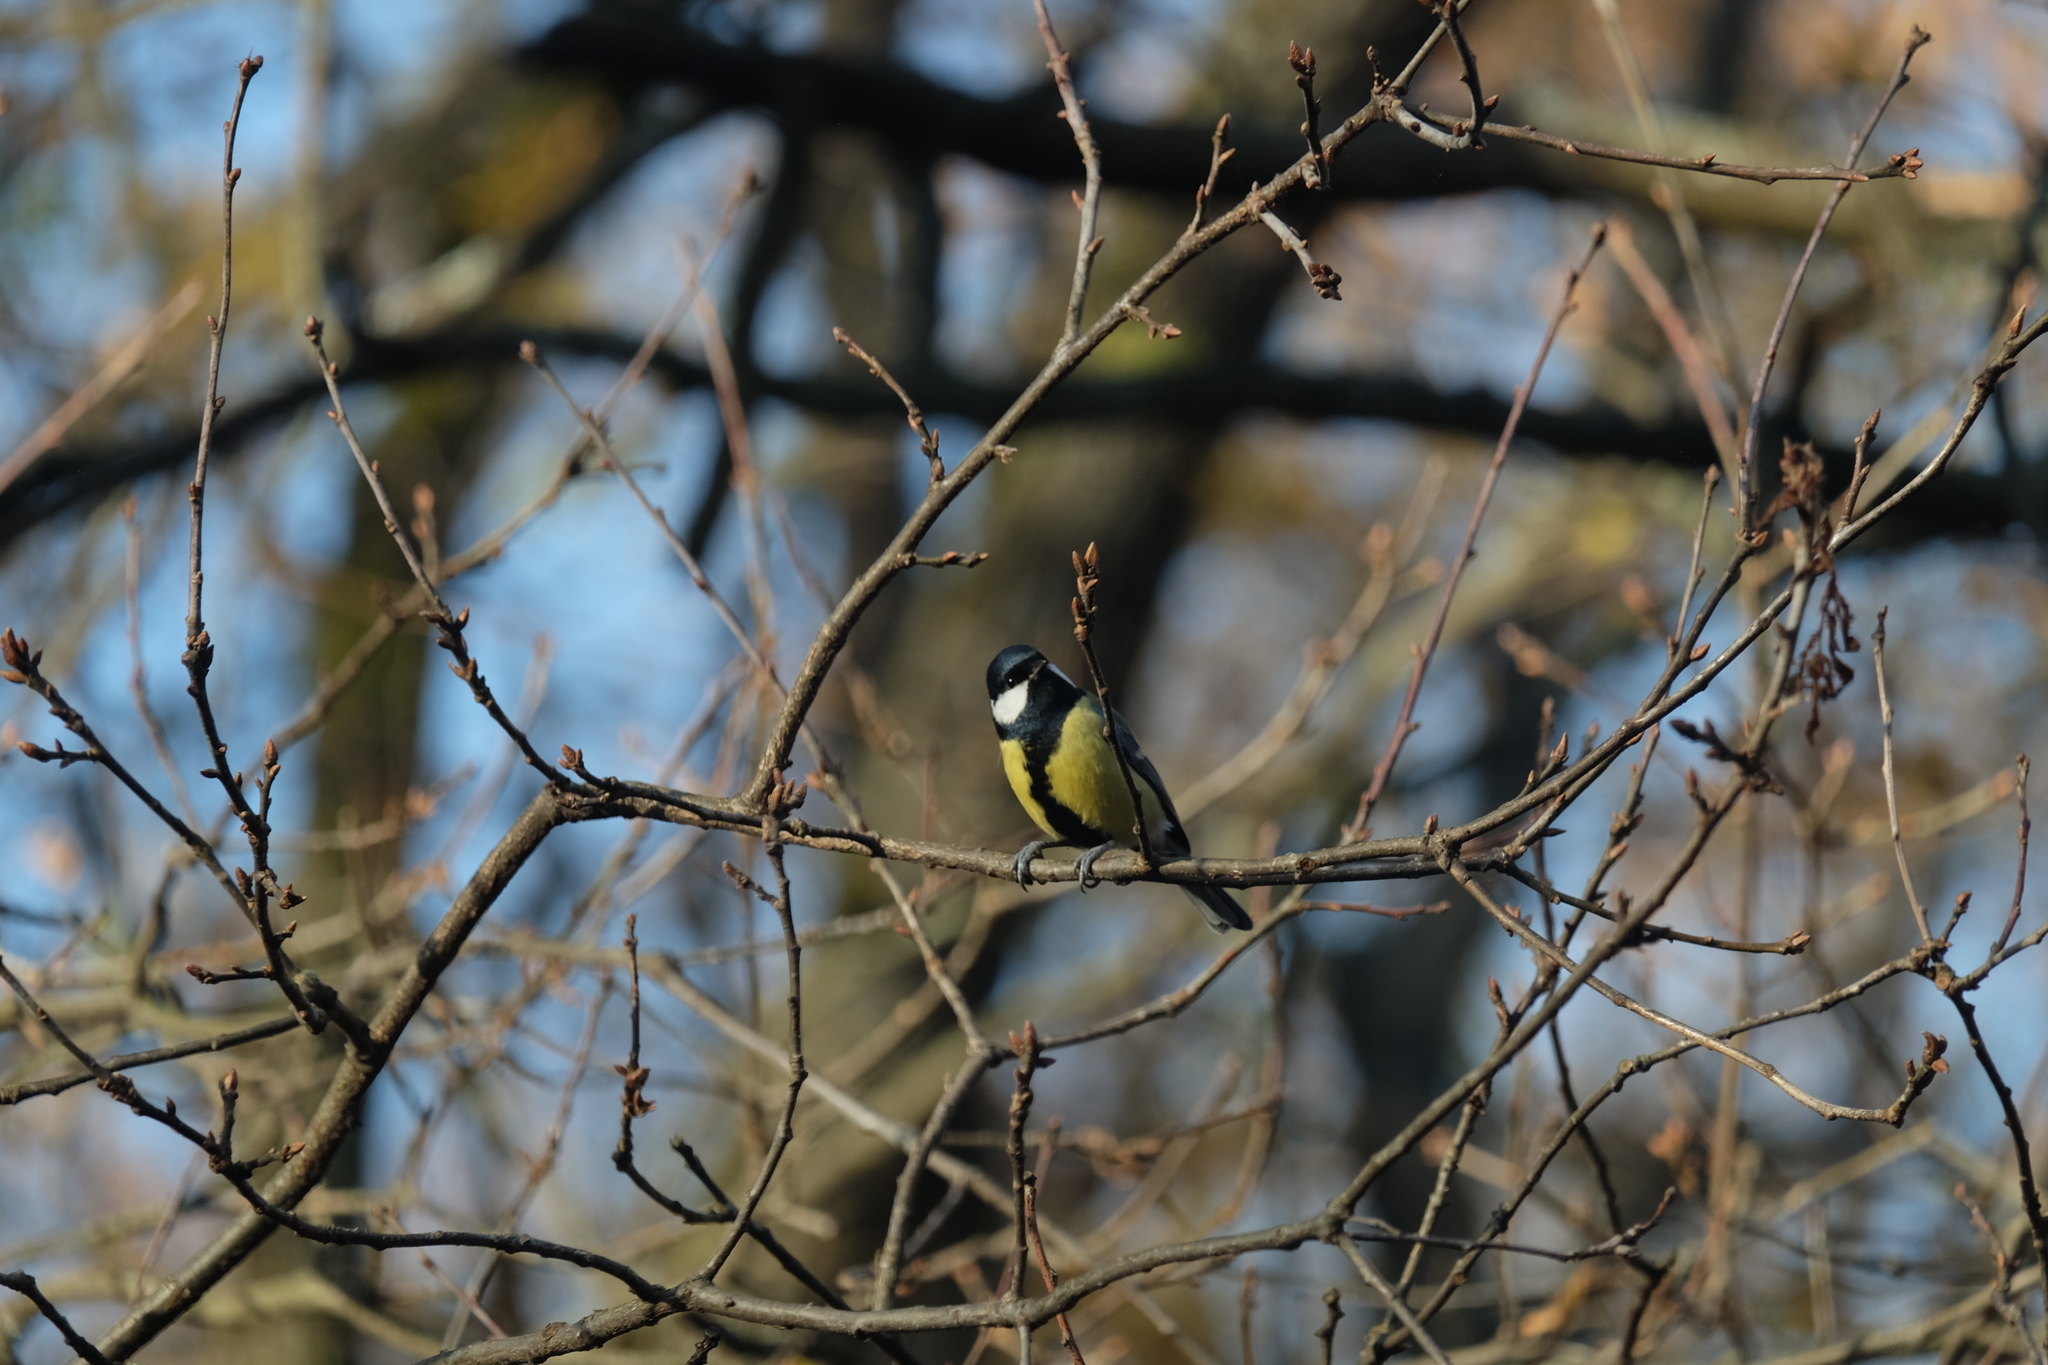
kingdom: Animalia
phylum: Chordata
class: Aves
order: Passeriformes
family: Paridae
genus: Parus
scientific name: Parus major
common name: Great tit
